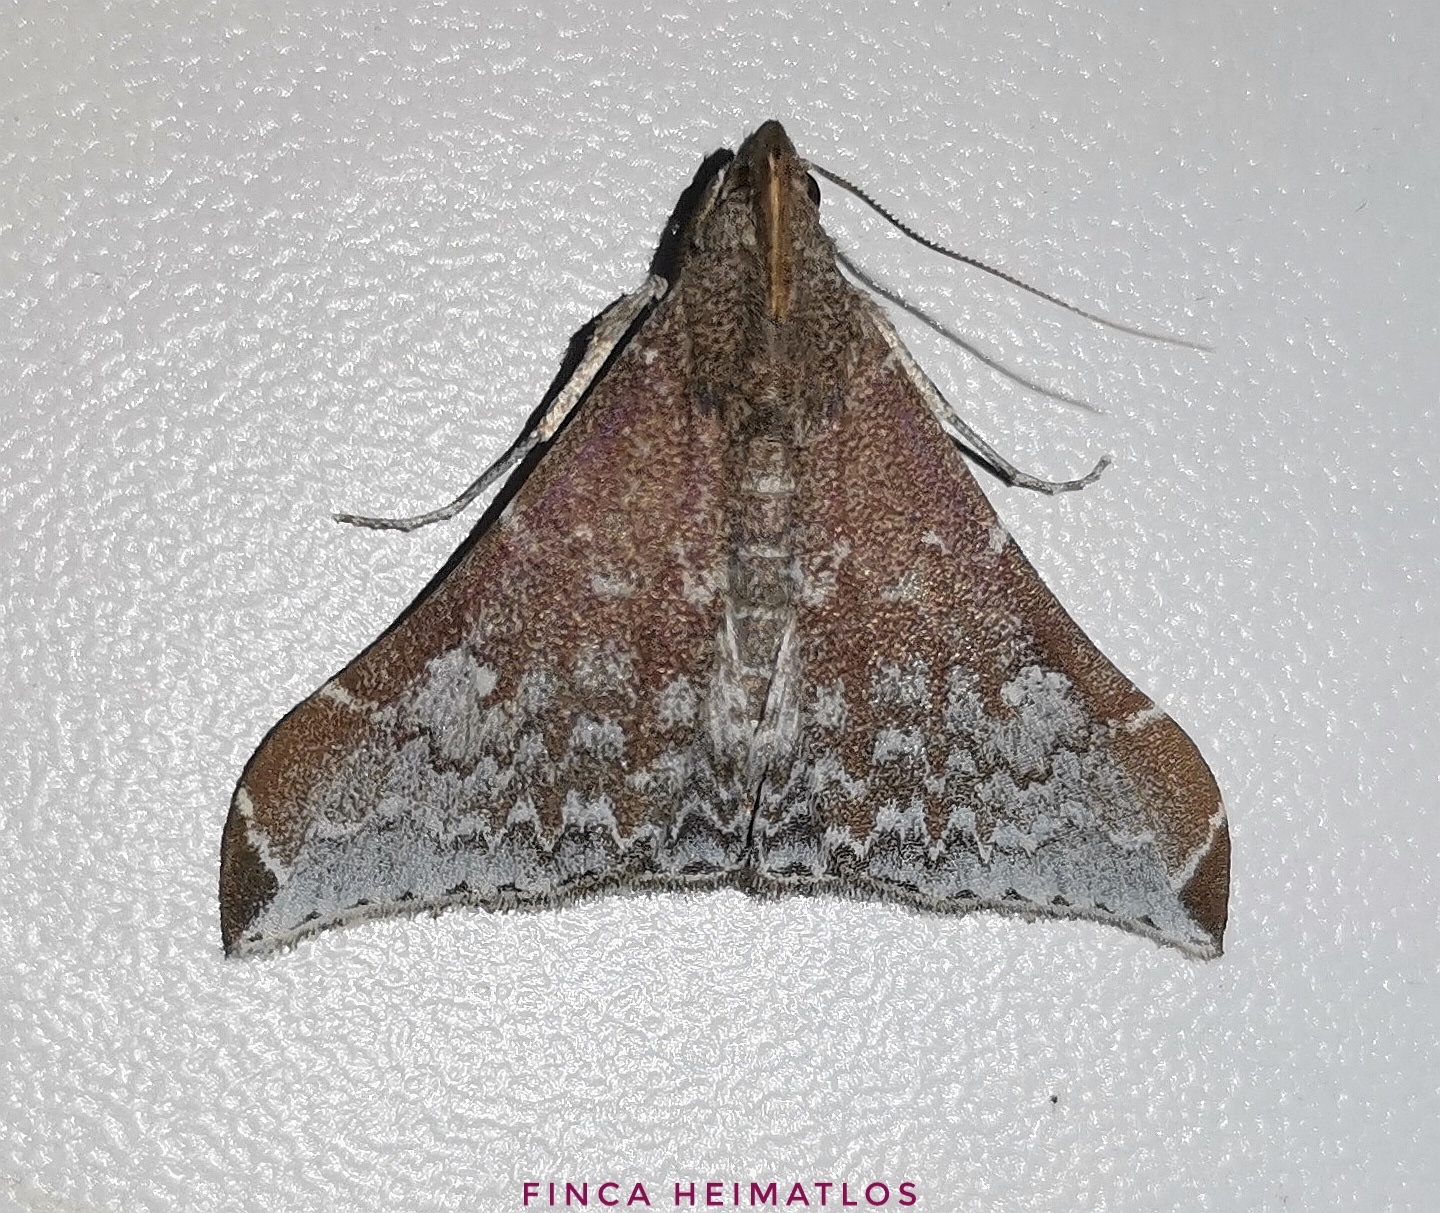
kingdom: Animalia
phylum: Arthropoda
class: Insecta
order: Lepidoptera
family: Erebidae
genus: Neopalthis
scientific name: Neopalthis madates
